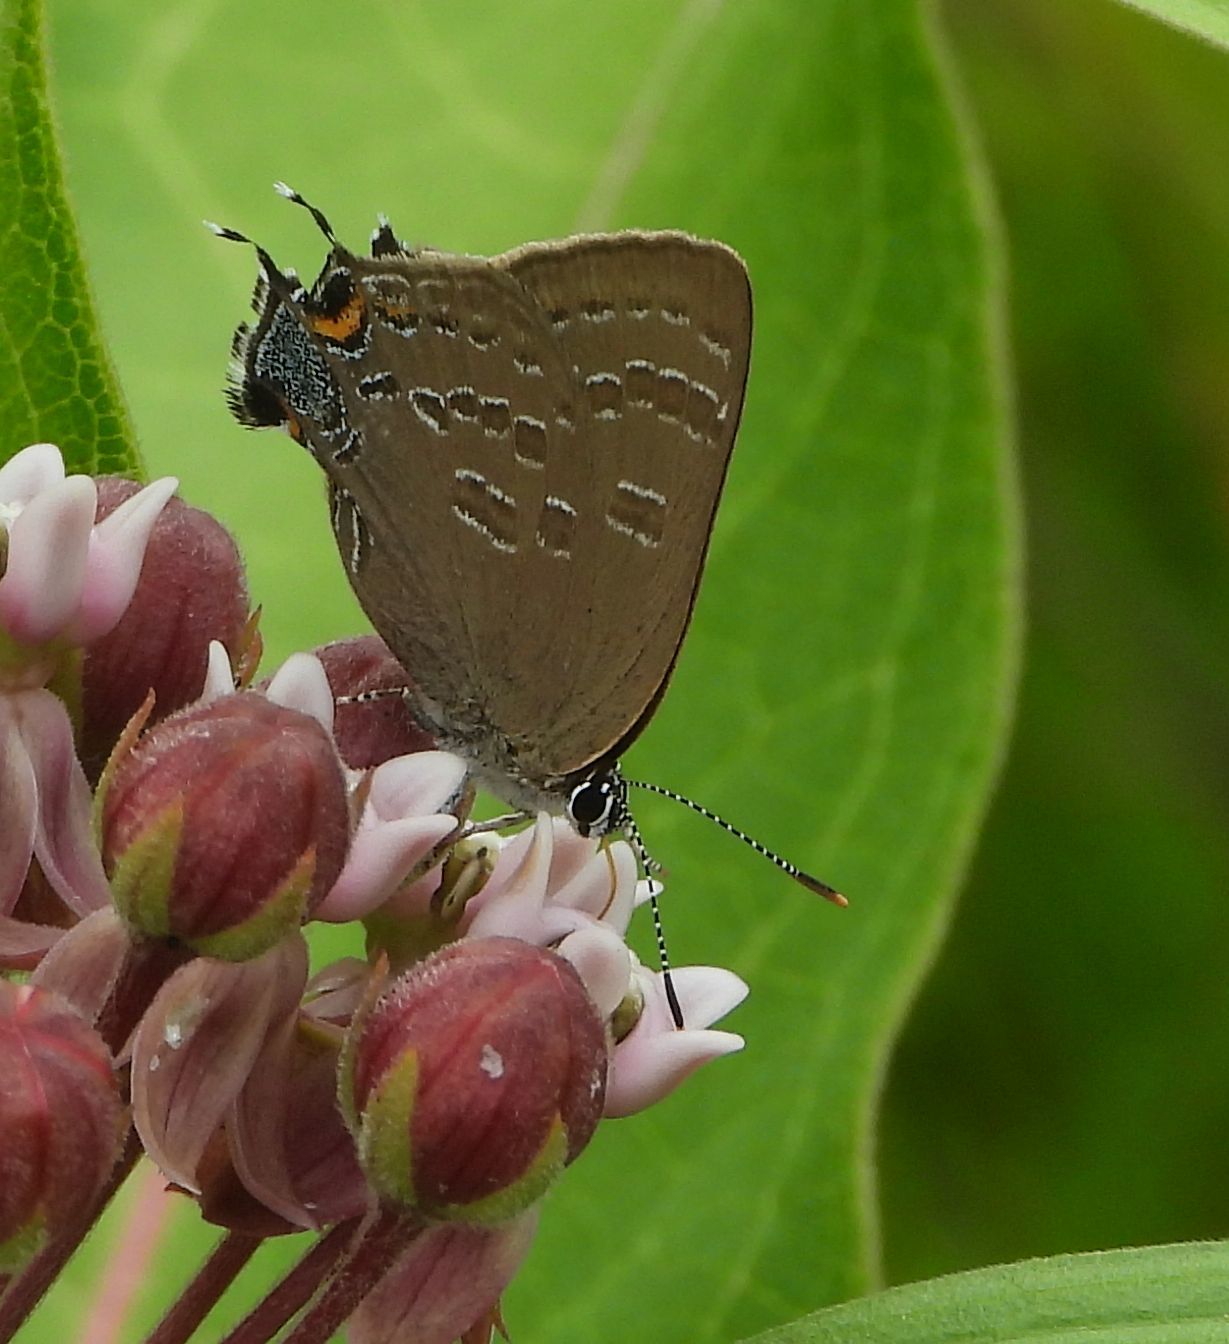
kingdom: Animalia
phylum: Arthropoda
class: Insecta
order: Lepidoptera
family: Lycaenidae
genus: Strymon
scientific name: Strymon caryaevorus
